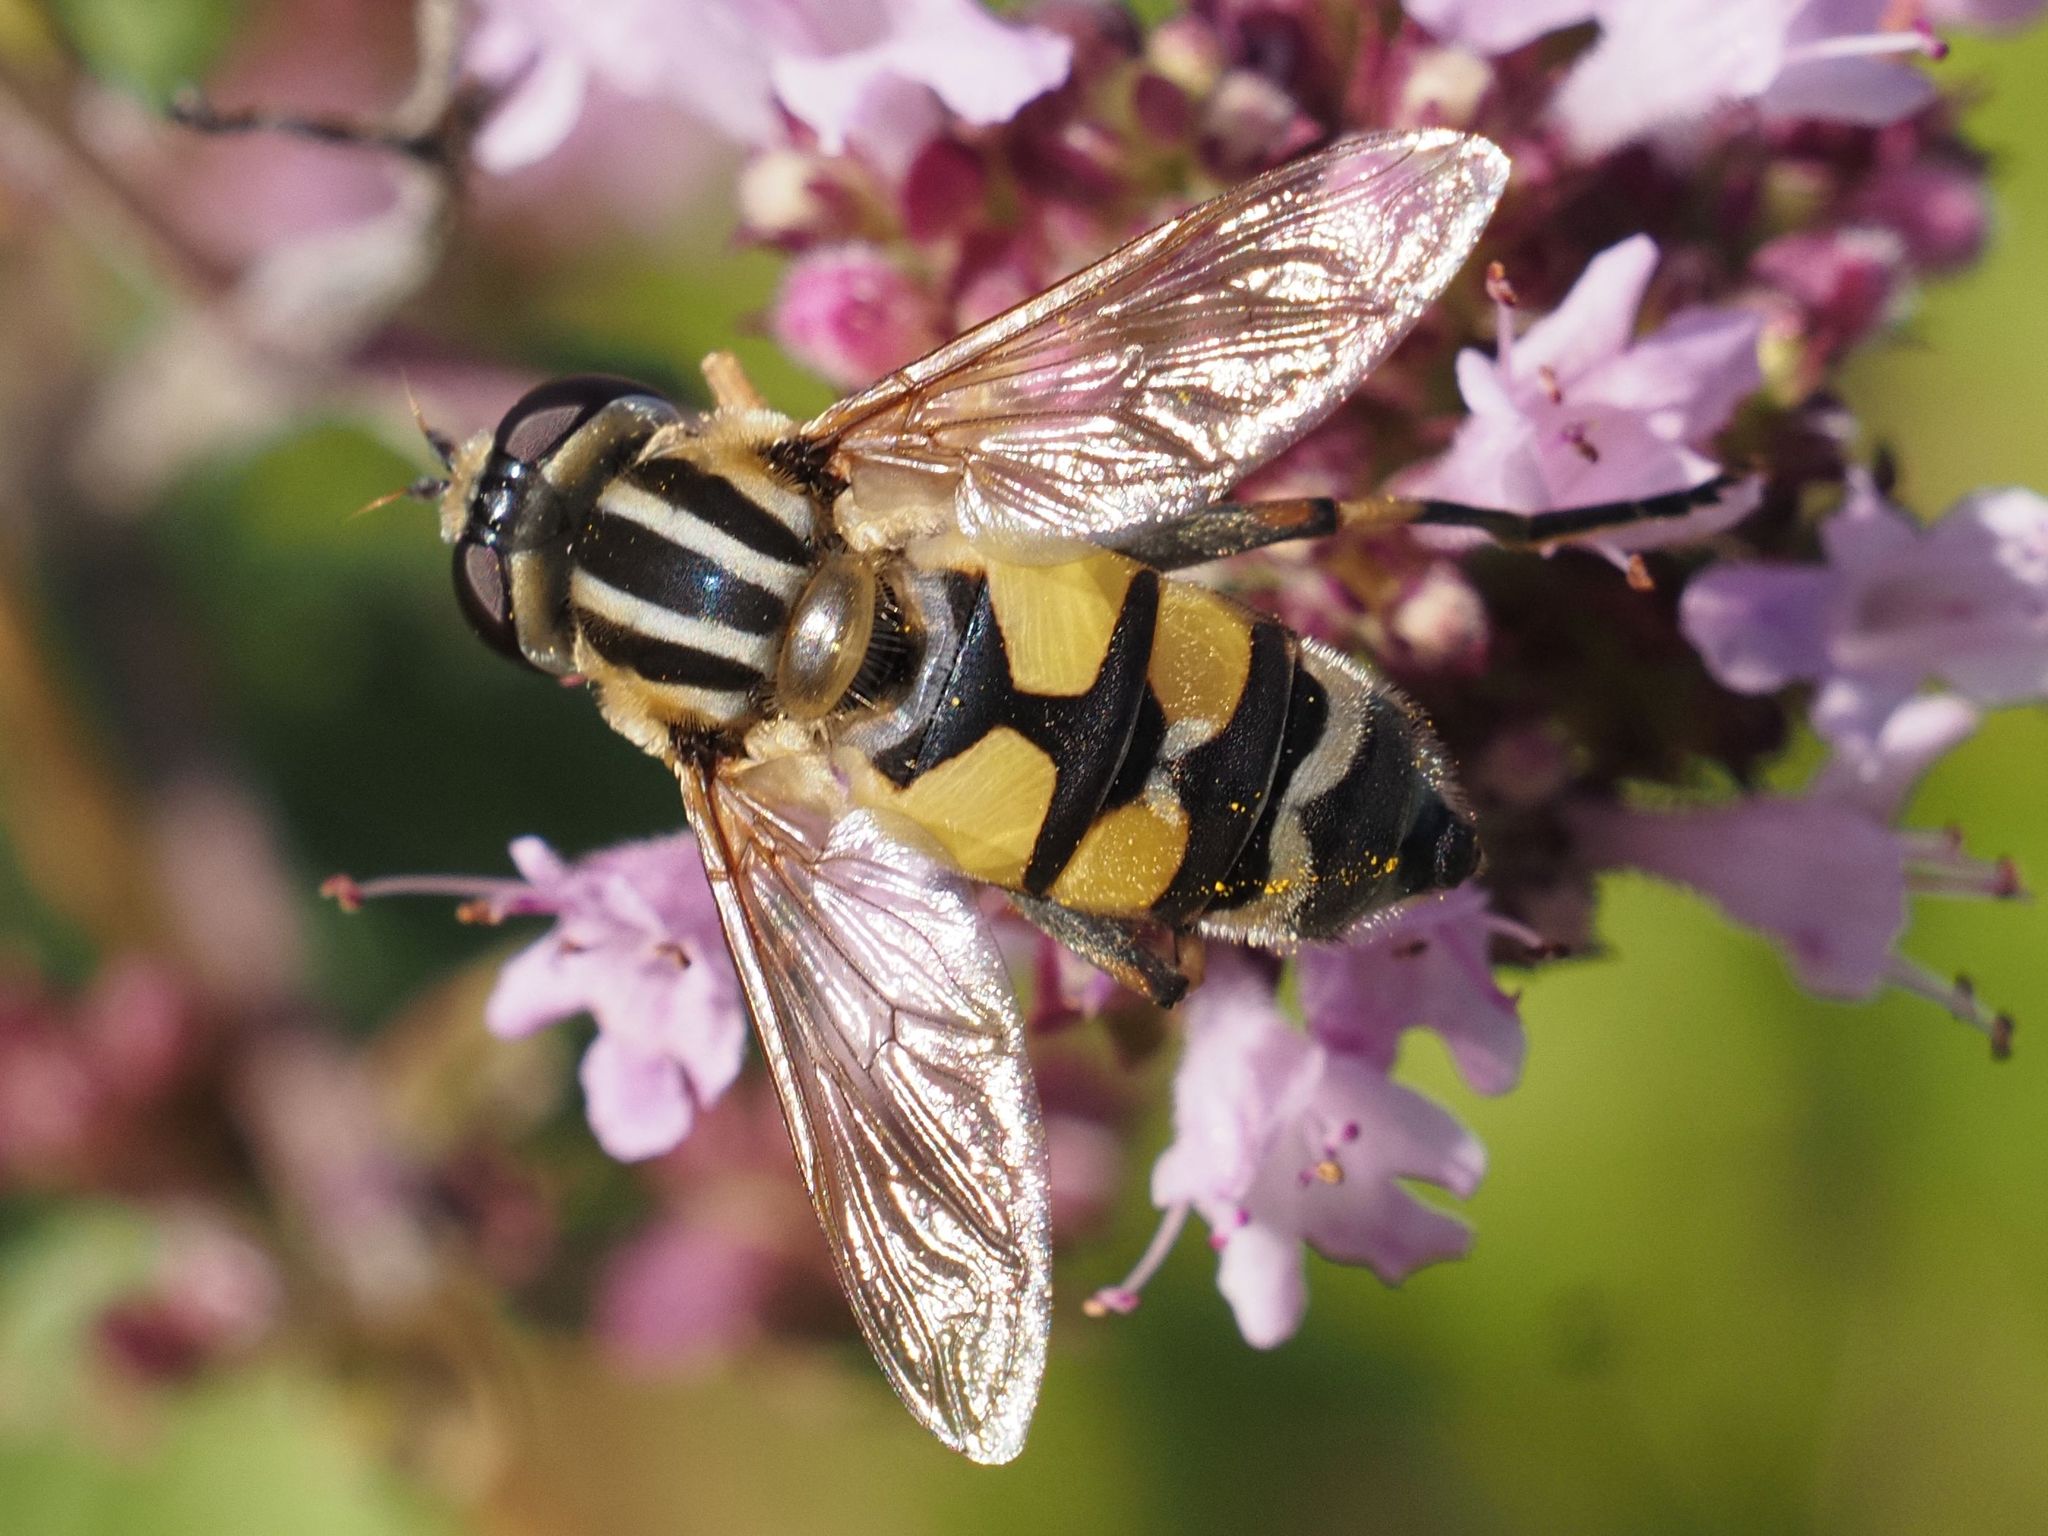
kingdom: Animalia
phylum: Arthropoda
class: Insecta
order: Diptera
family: Syrphidae
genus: Helophilus
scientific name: Helophilus trivittatus
